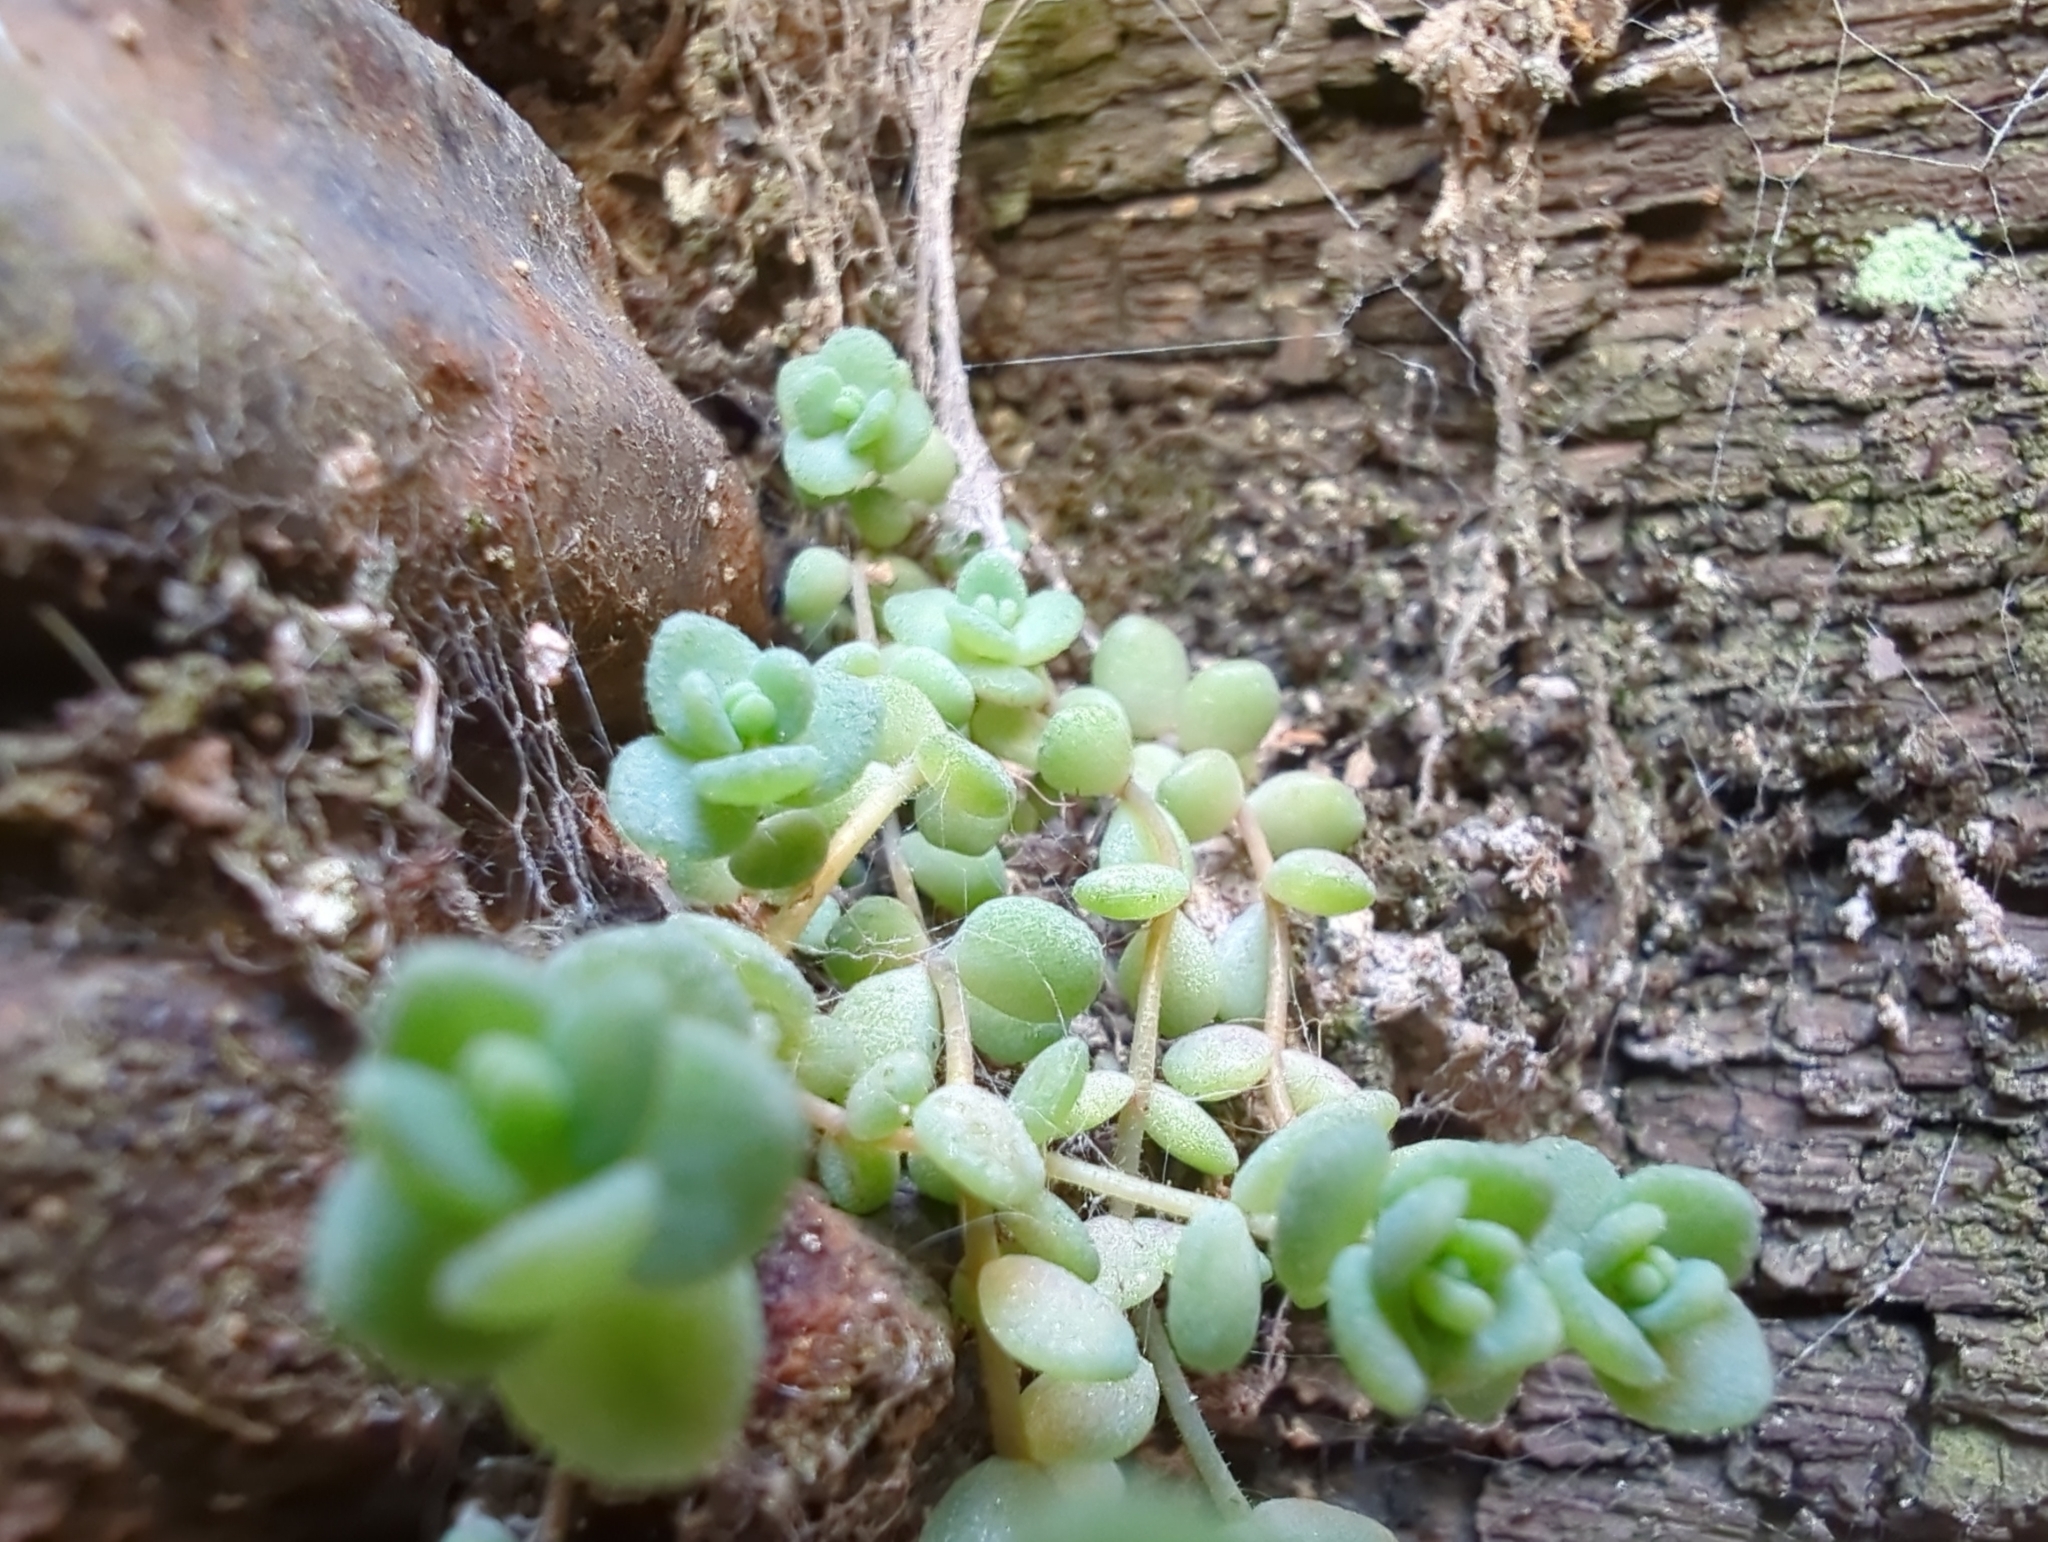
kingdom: Plantae
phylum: Tracheophyta
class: Magnoliopsida
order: Saxifragales
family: Crassulaceae
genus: Sedum
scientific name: Sedum dasyphyllum
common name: Thick-leaf stonecrop
